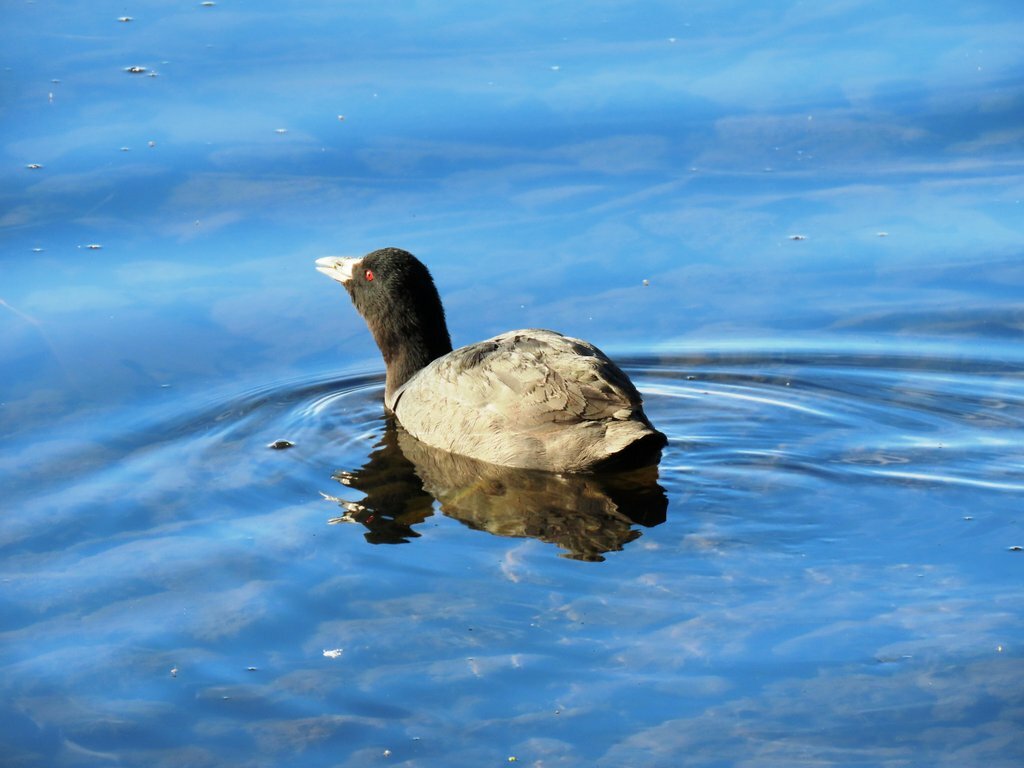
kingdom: Animalia
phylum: Chordata
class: Aves
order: Gruiformes
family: Rallidae
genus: Fulica
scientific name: Fulica atra
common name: Eurasian coot
